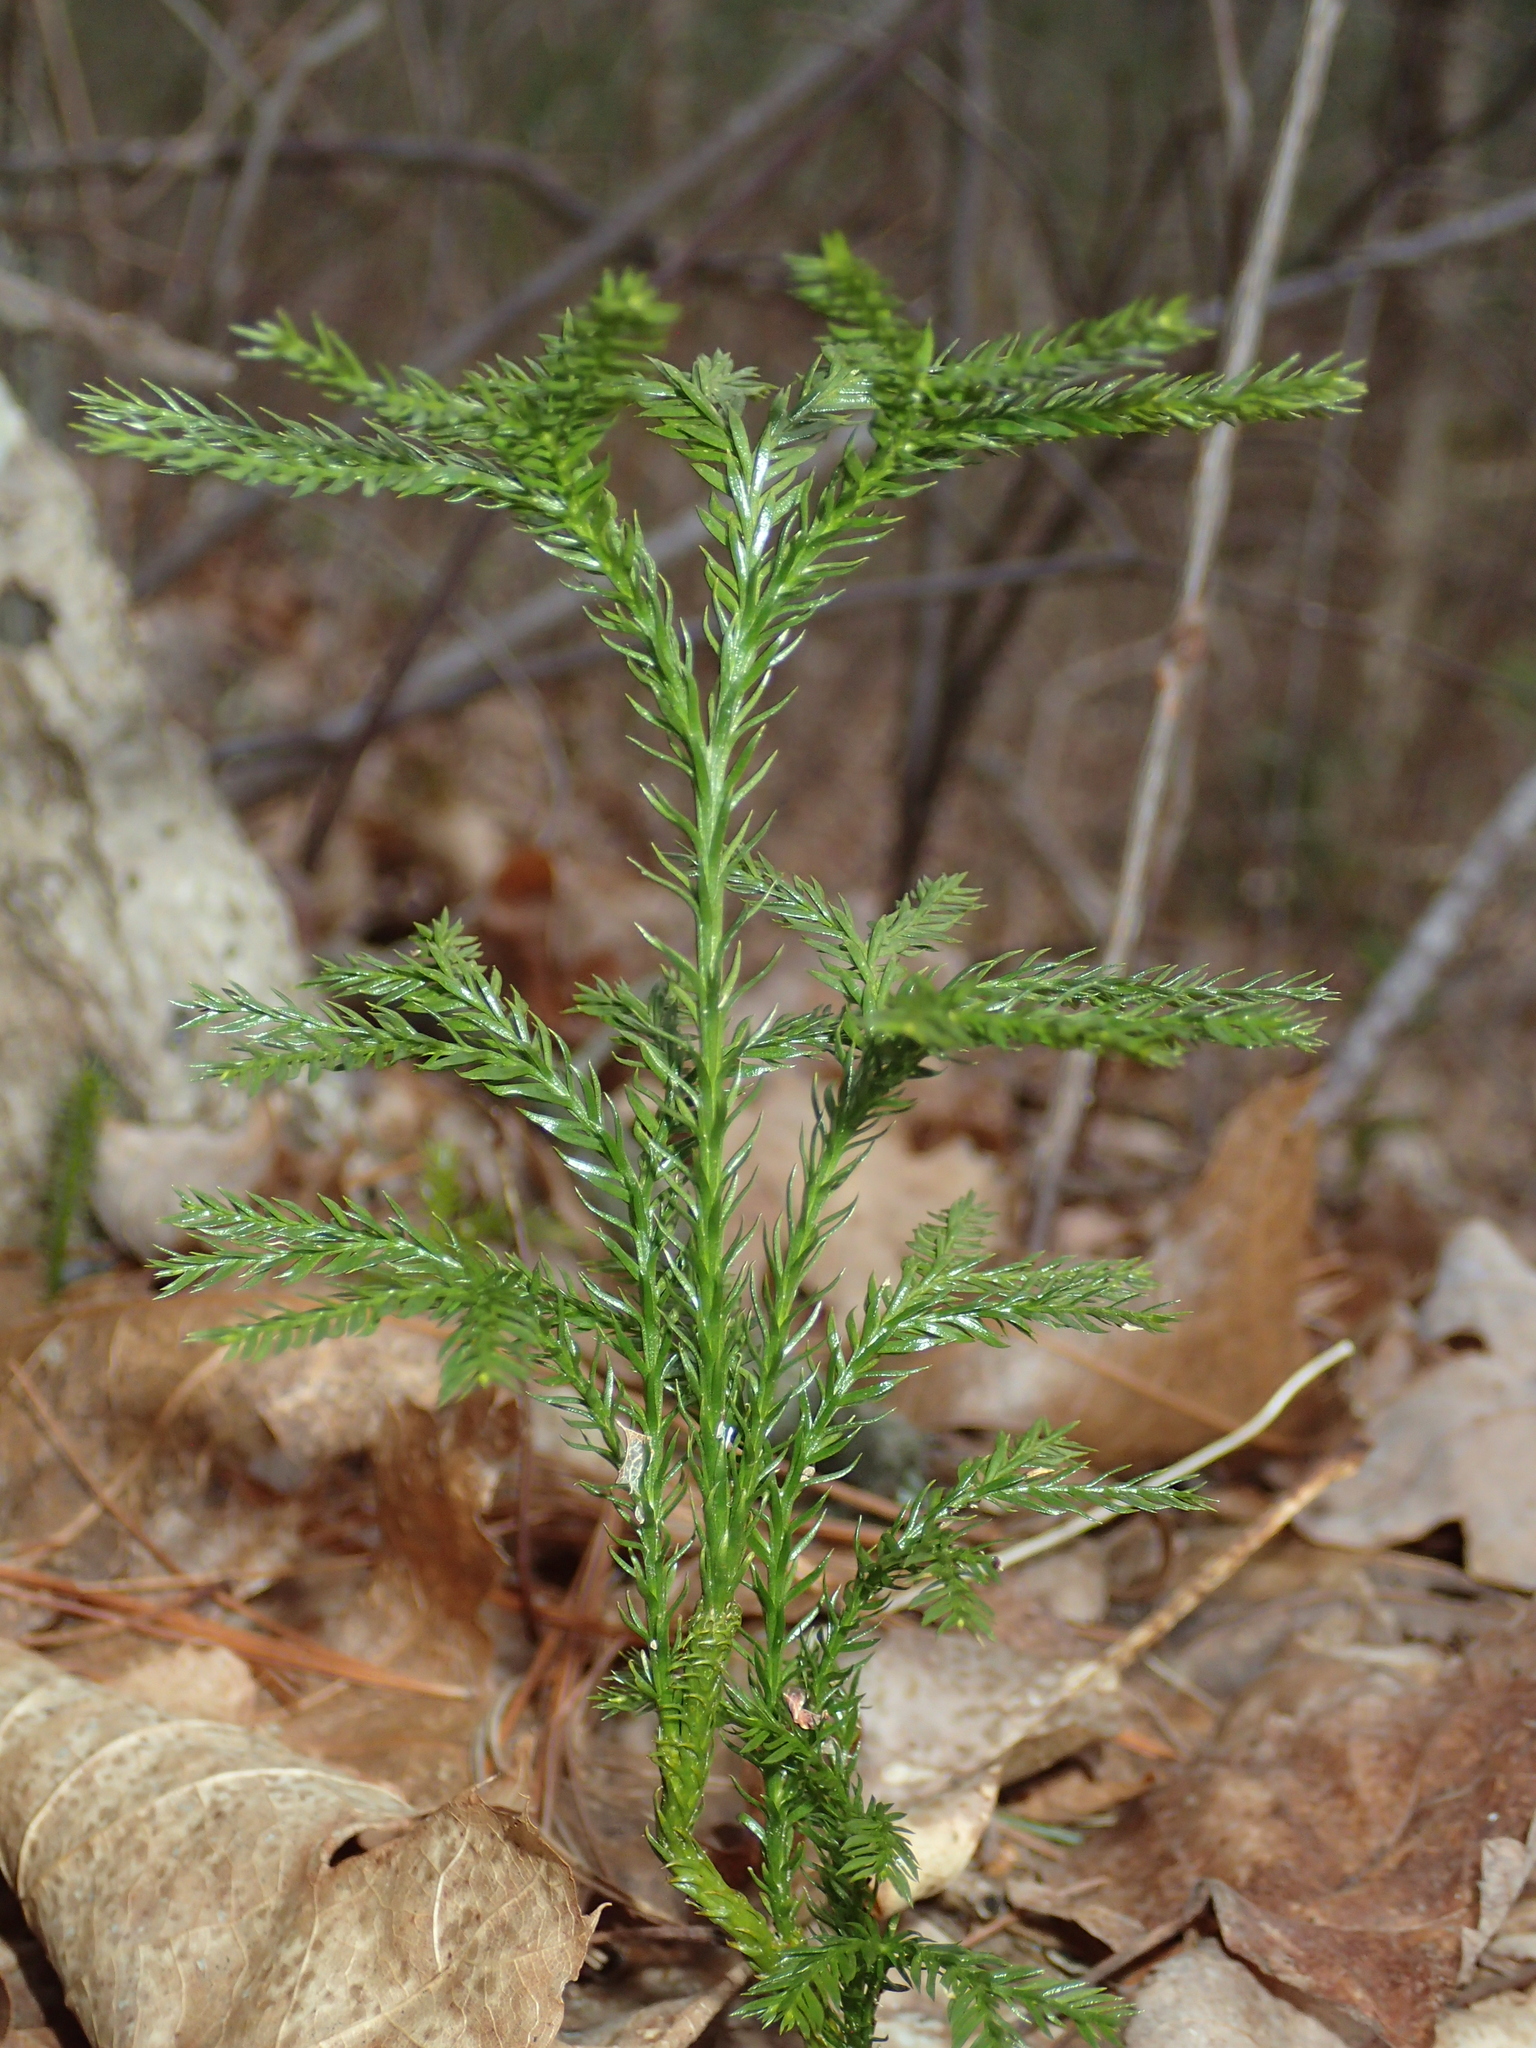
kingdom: Plantae
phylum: Tracheophyta
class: Lycopodiopsida
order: Lycopodiales
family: Lycopodiaceae
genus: Dendrolycopodium
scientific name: Dendrolycopodium obscurum
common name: Common ground-pine
